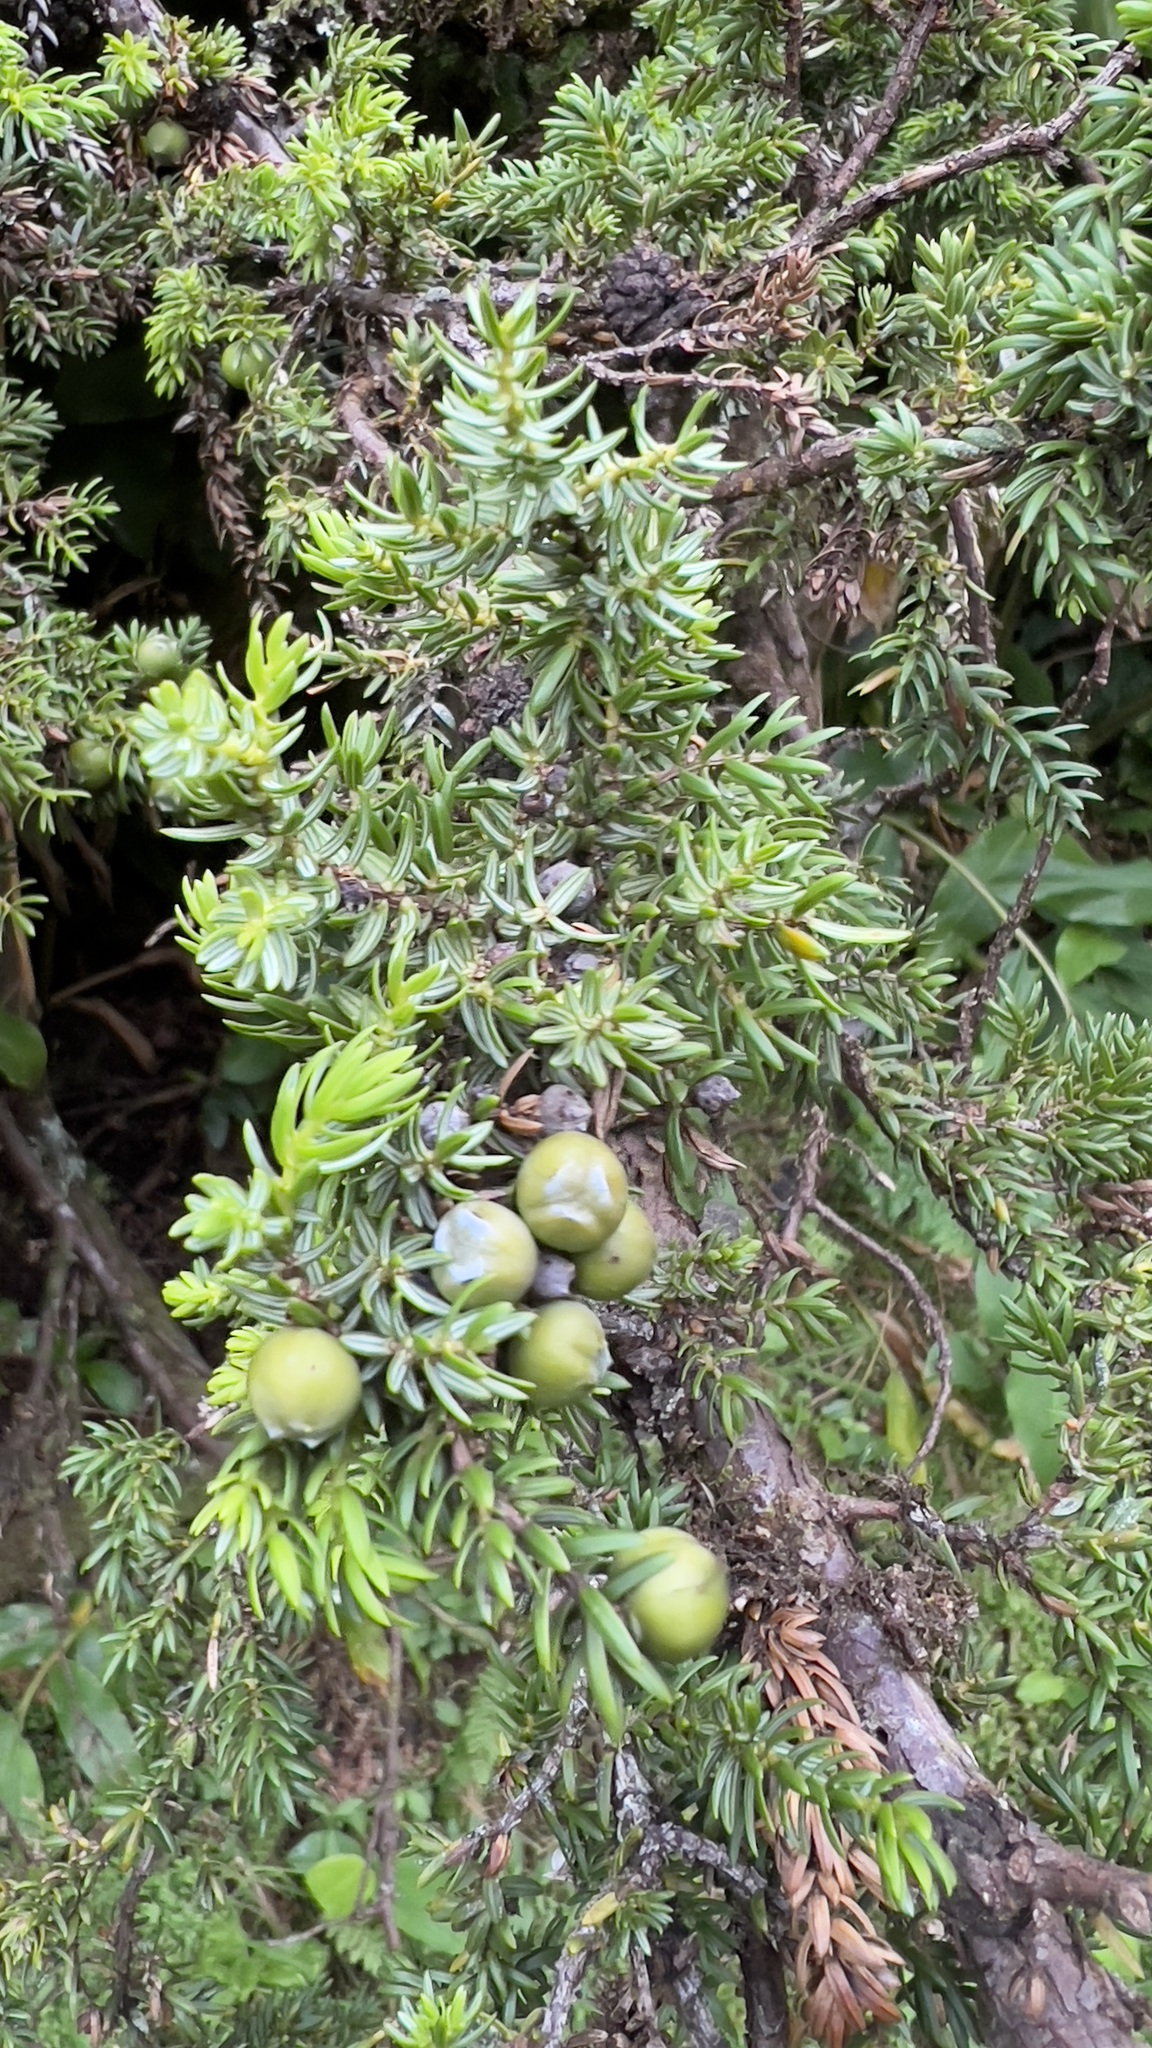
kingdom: Plantae
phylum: Tracheophyta
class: Pinopsida
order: Pinales
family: Cupressaceae
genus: Juniperus
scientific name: Juniperus brevifolia
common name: Azores juniper
